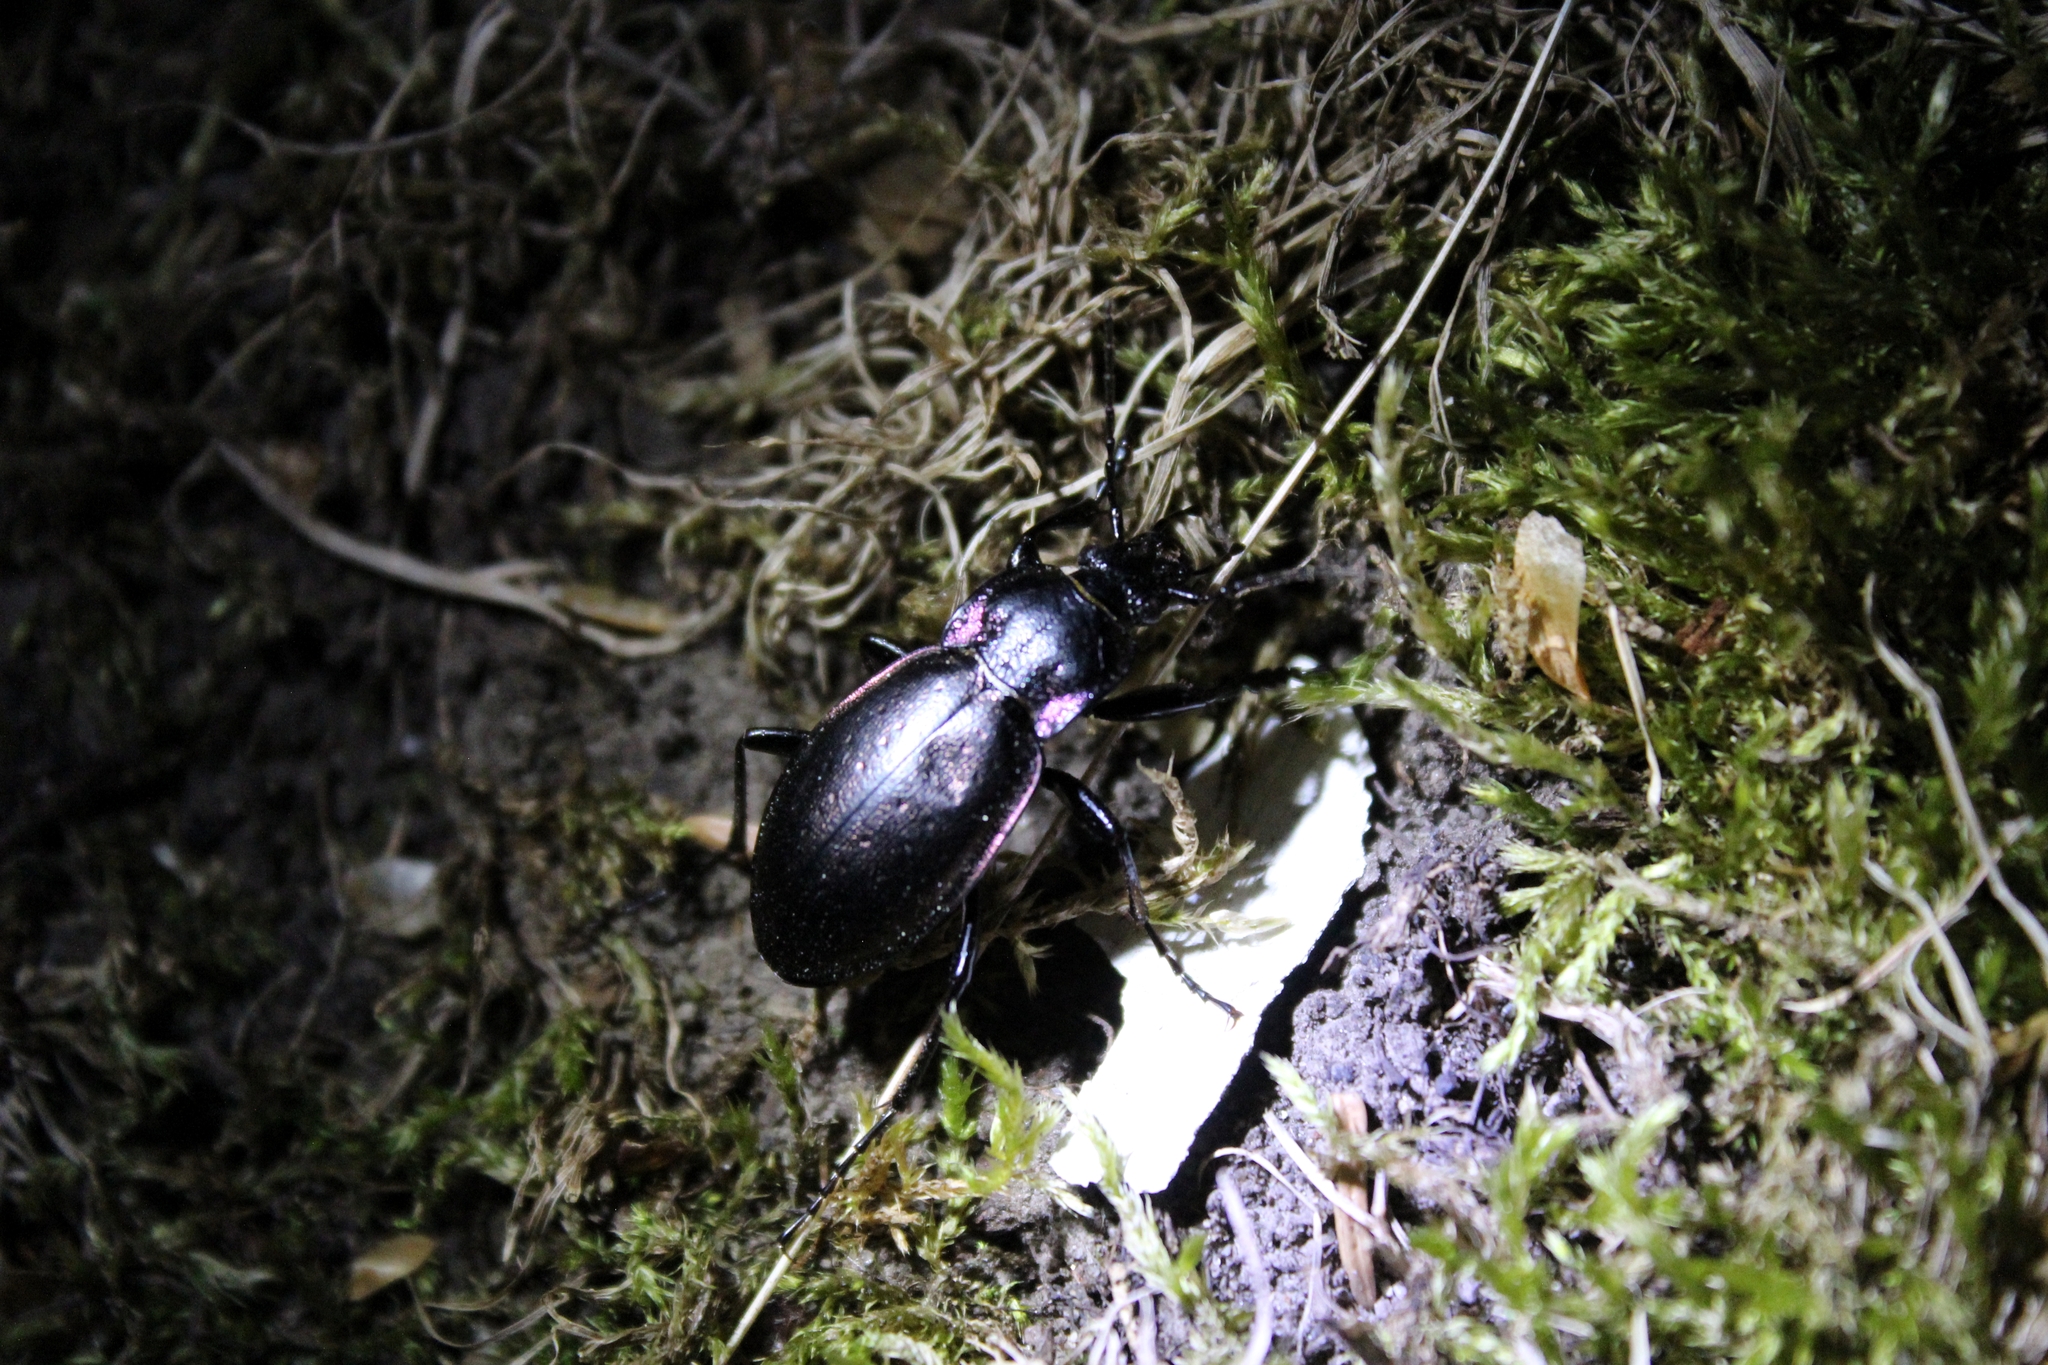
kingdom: Animalia
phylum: Arthropoda
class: Insecta
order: Coleoptera
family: Carabidae
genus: Carabus
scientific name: Carabus nemoralis
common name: European ground beetle
